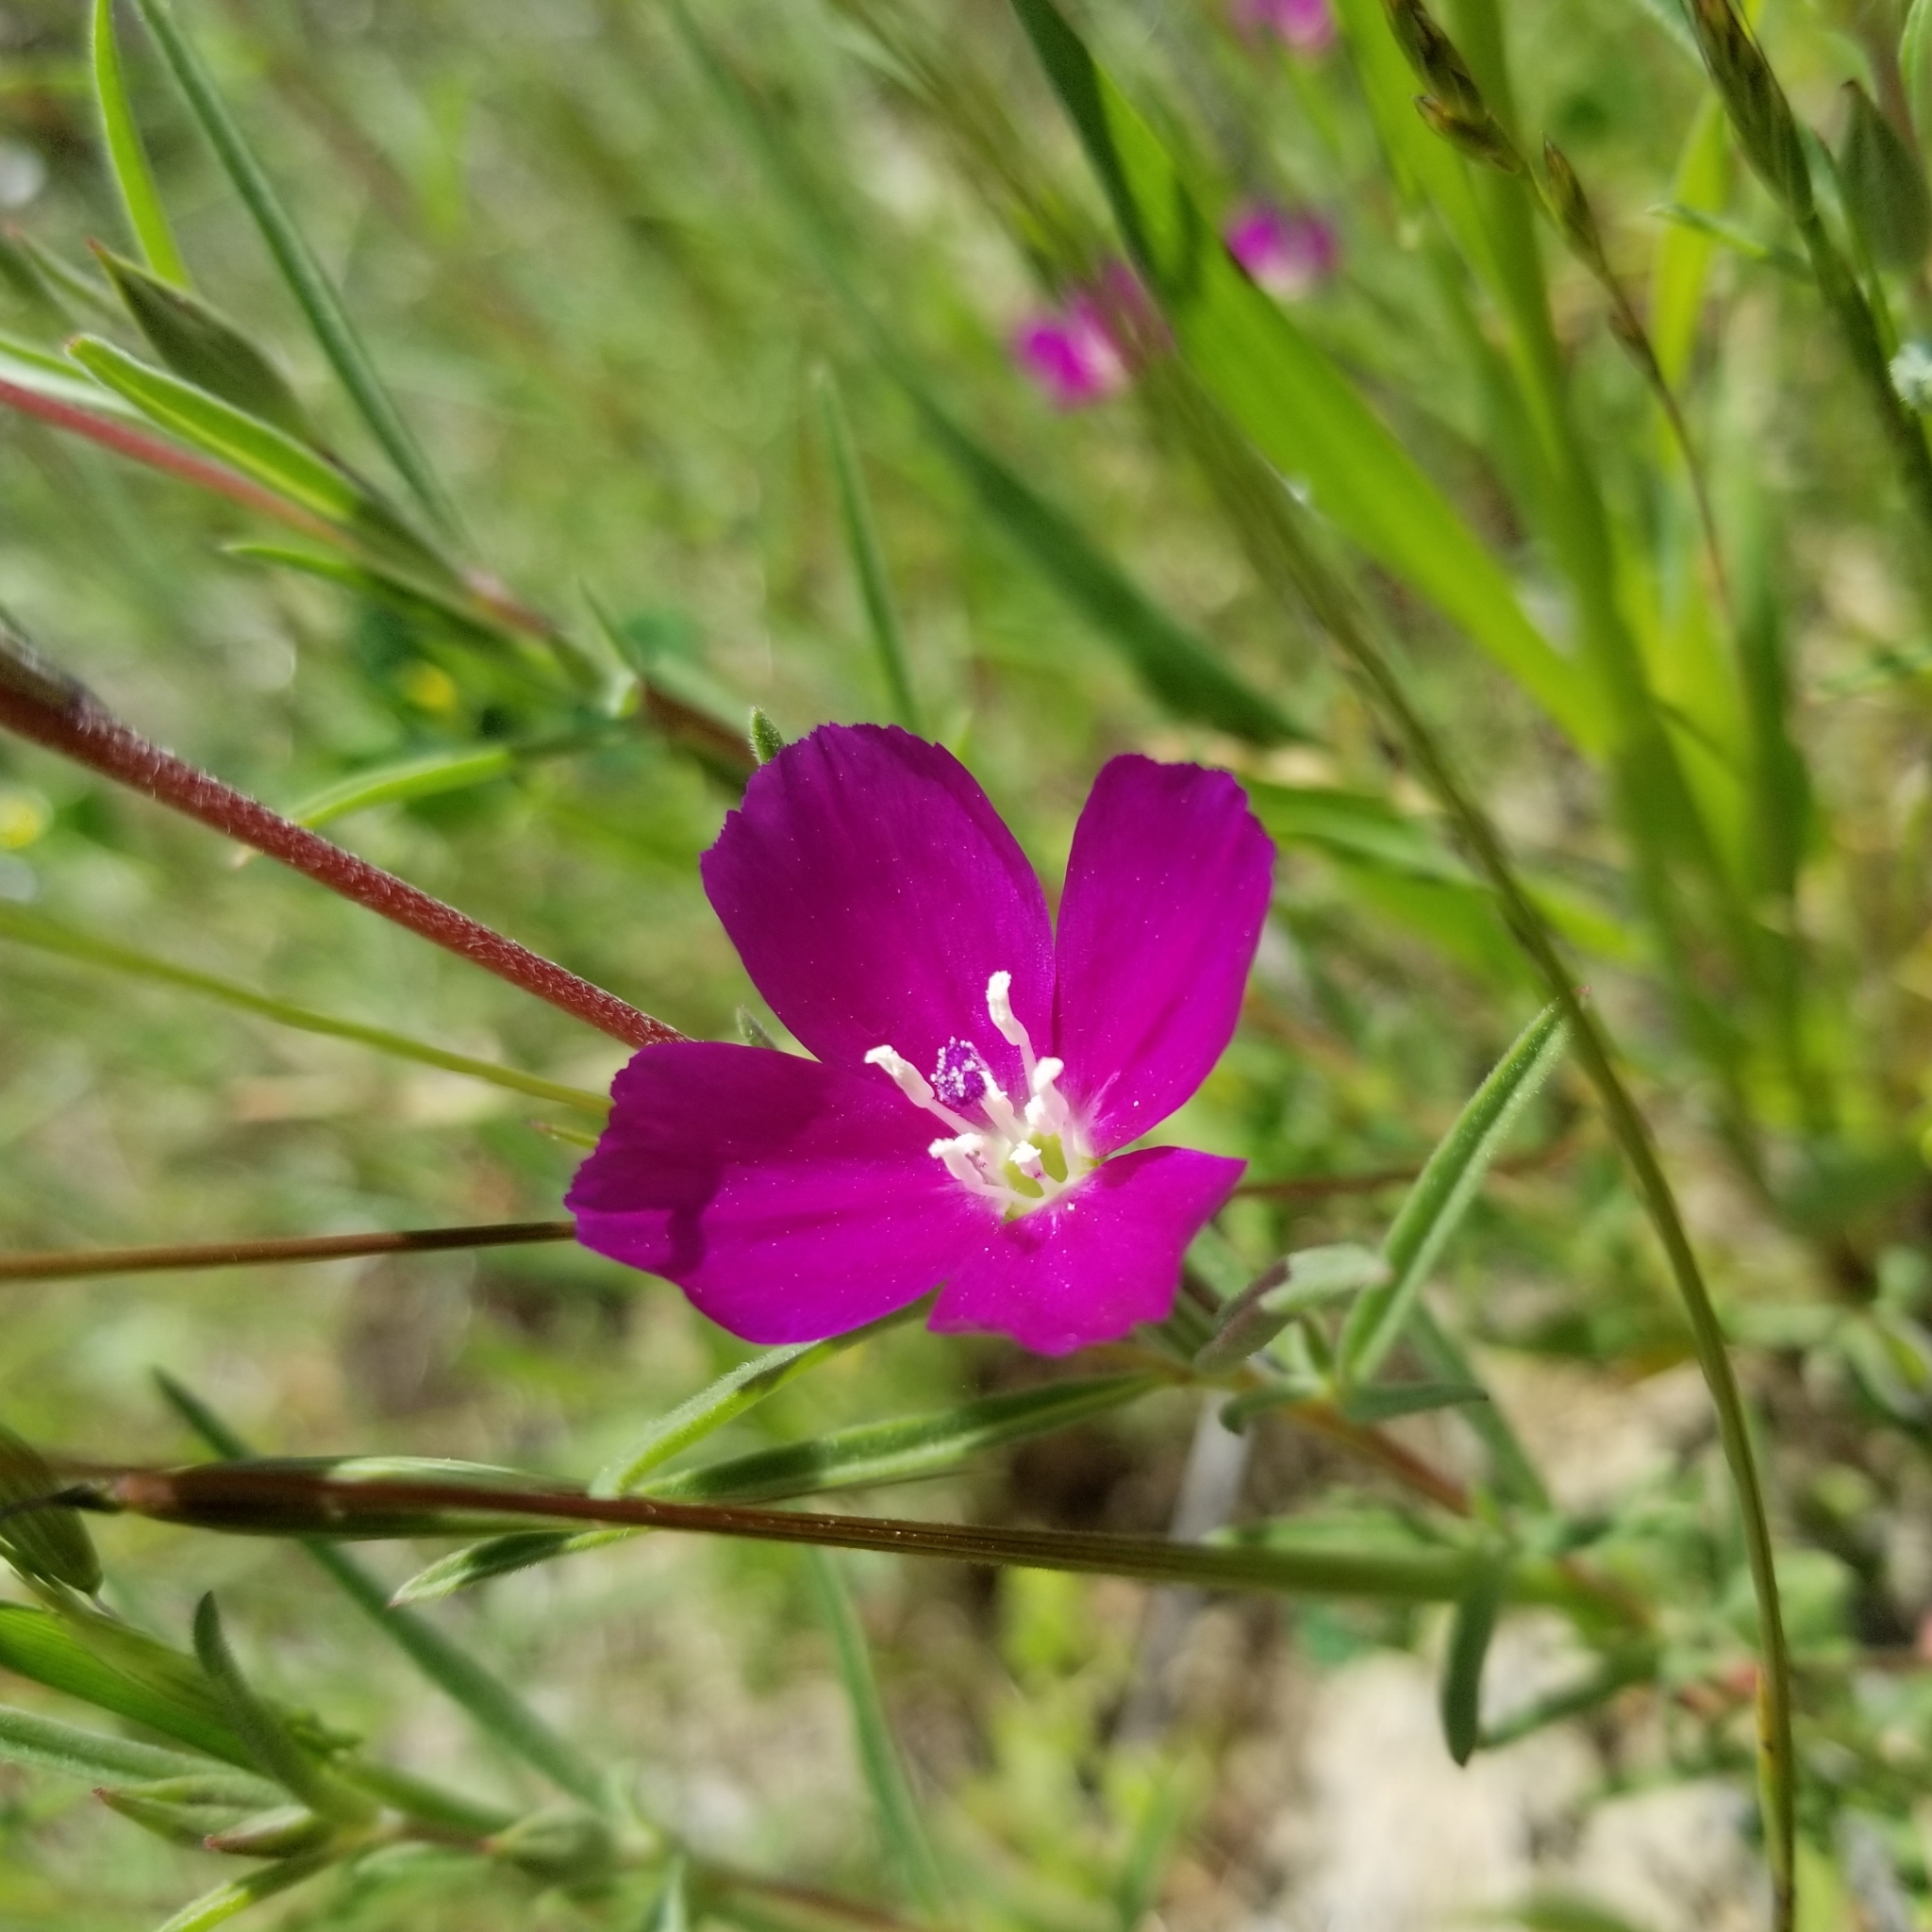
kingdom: Plantae
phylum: Tracheophyta
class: Magnoliopsida
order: Myrtales
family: Onagraceae
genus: Clarkia
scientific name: Clarkia purpurea
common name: Purple clarkia
